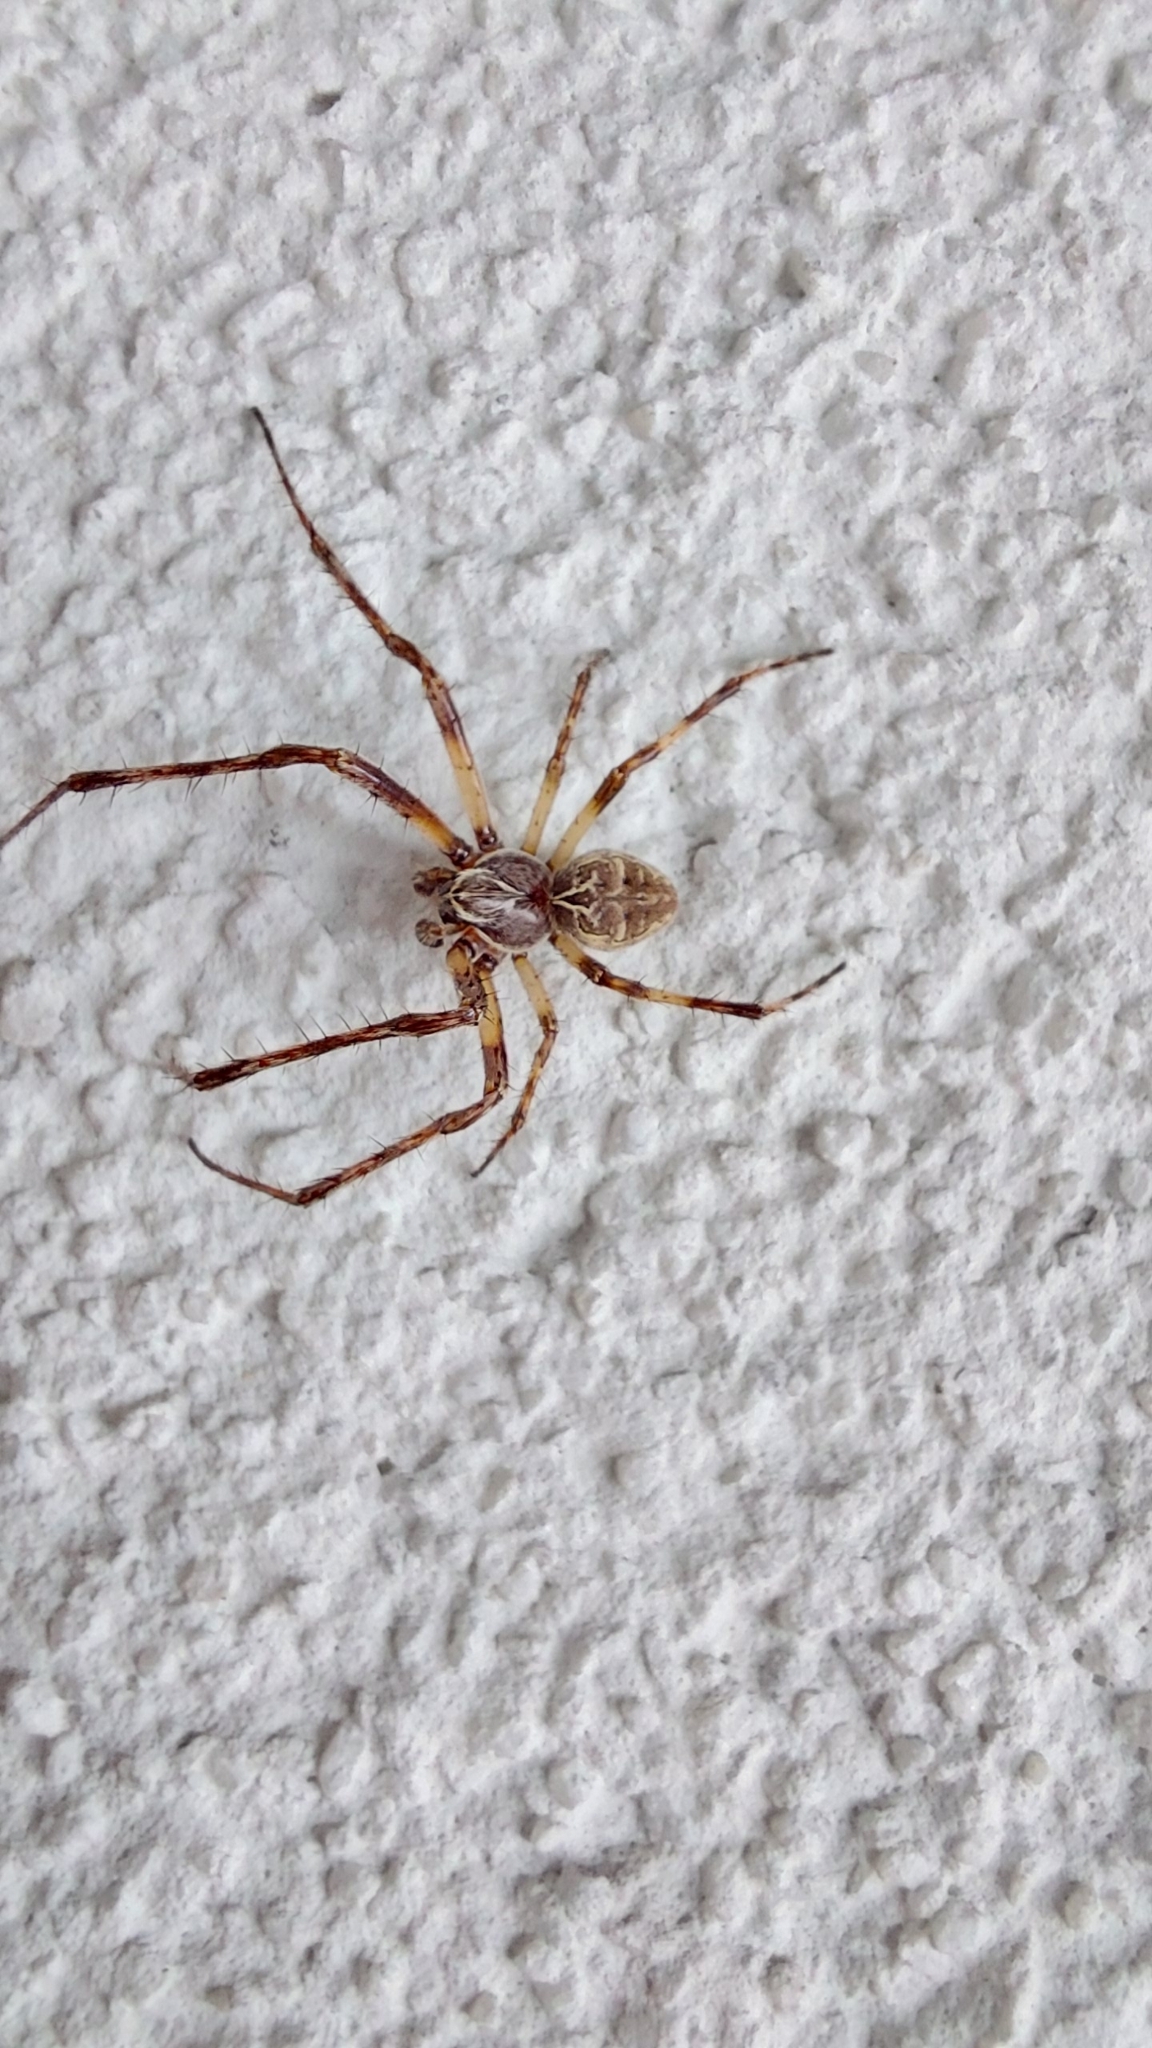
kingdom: Animalia
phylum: Arthropoda
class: Arachnida
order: Araneae
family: Araneidae
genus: Larinioides
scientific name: Larinioides sclopetarius
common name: Bridge orbweaver
